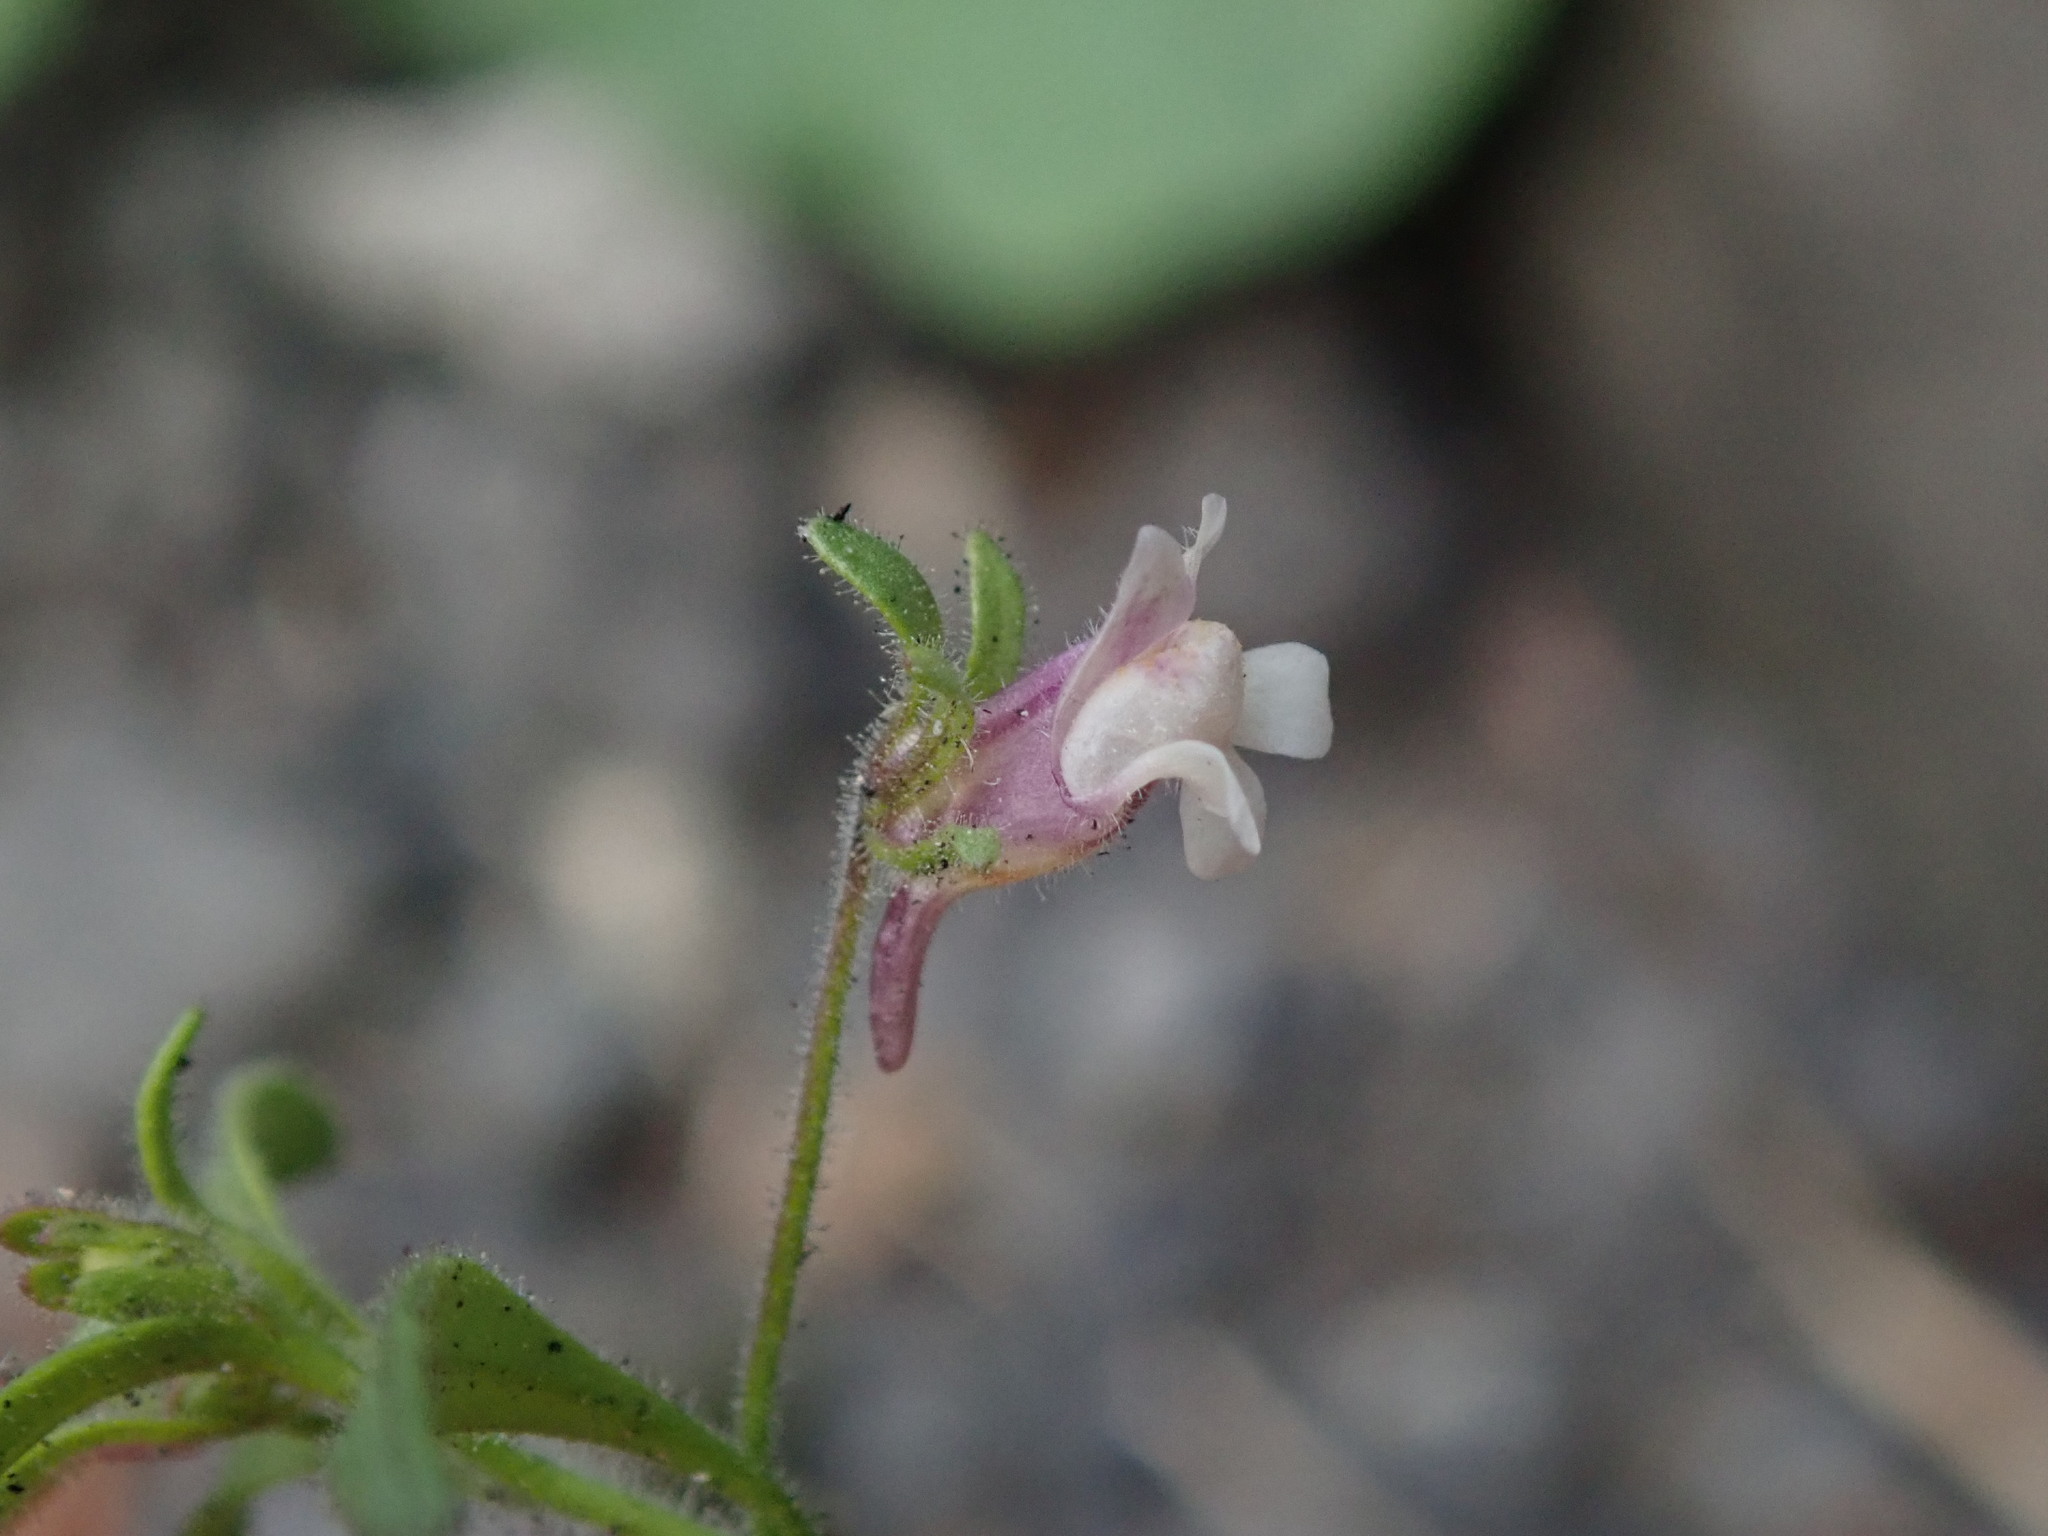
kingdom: Plantae
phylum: Tracheophyta
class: Magnoliopsida
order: Lamiales
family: Plantaginaceae
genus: Chaenorhinum
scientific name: Chaenorhinum minus
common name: Dwarf snapdragon
